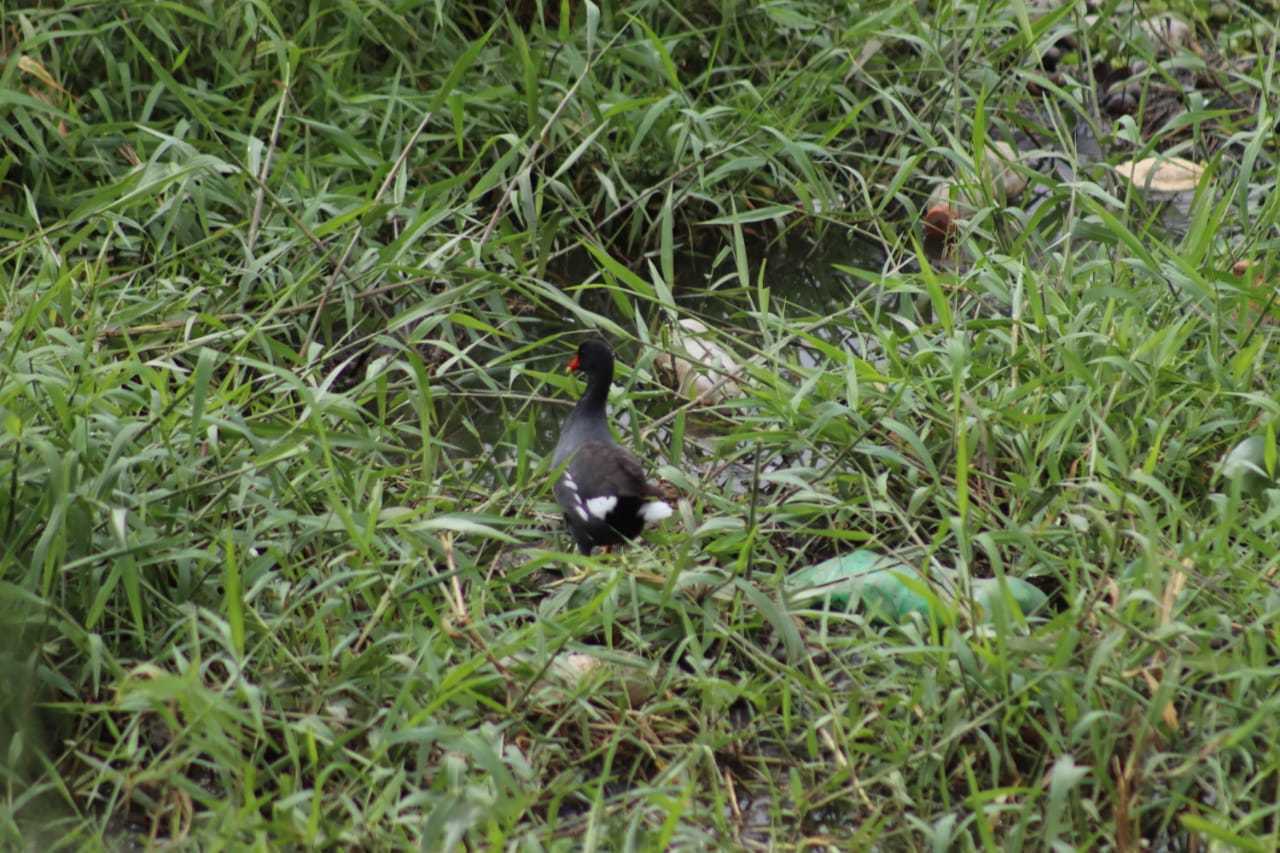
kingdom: Animalia
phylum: Chordata
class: Aves
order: Gruiformes
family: Rallidae
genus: Gallinula
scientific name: Gallinula chloropus
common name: Common moorhen
